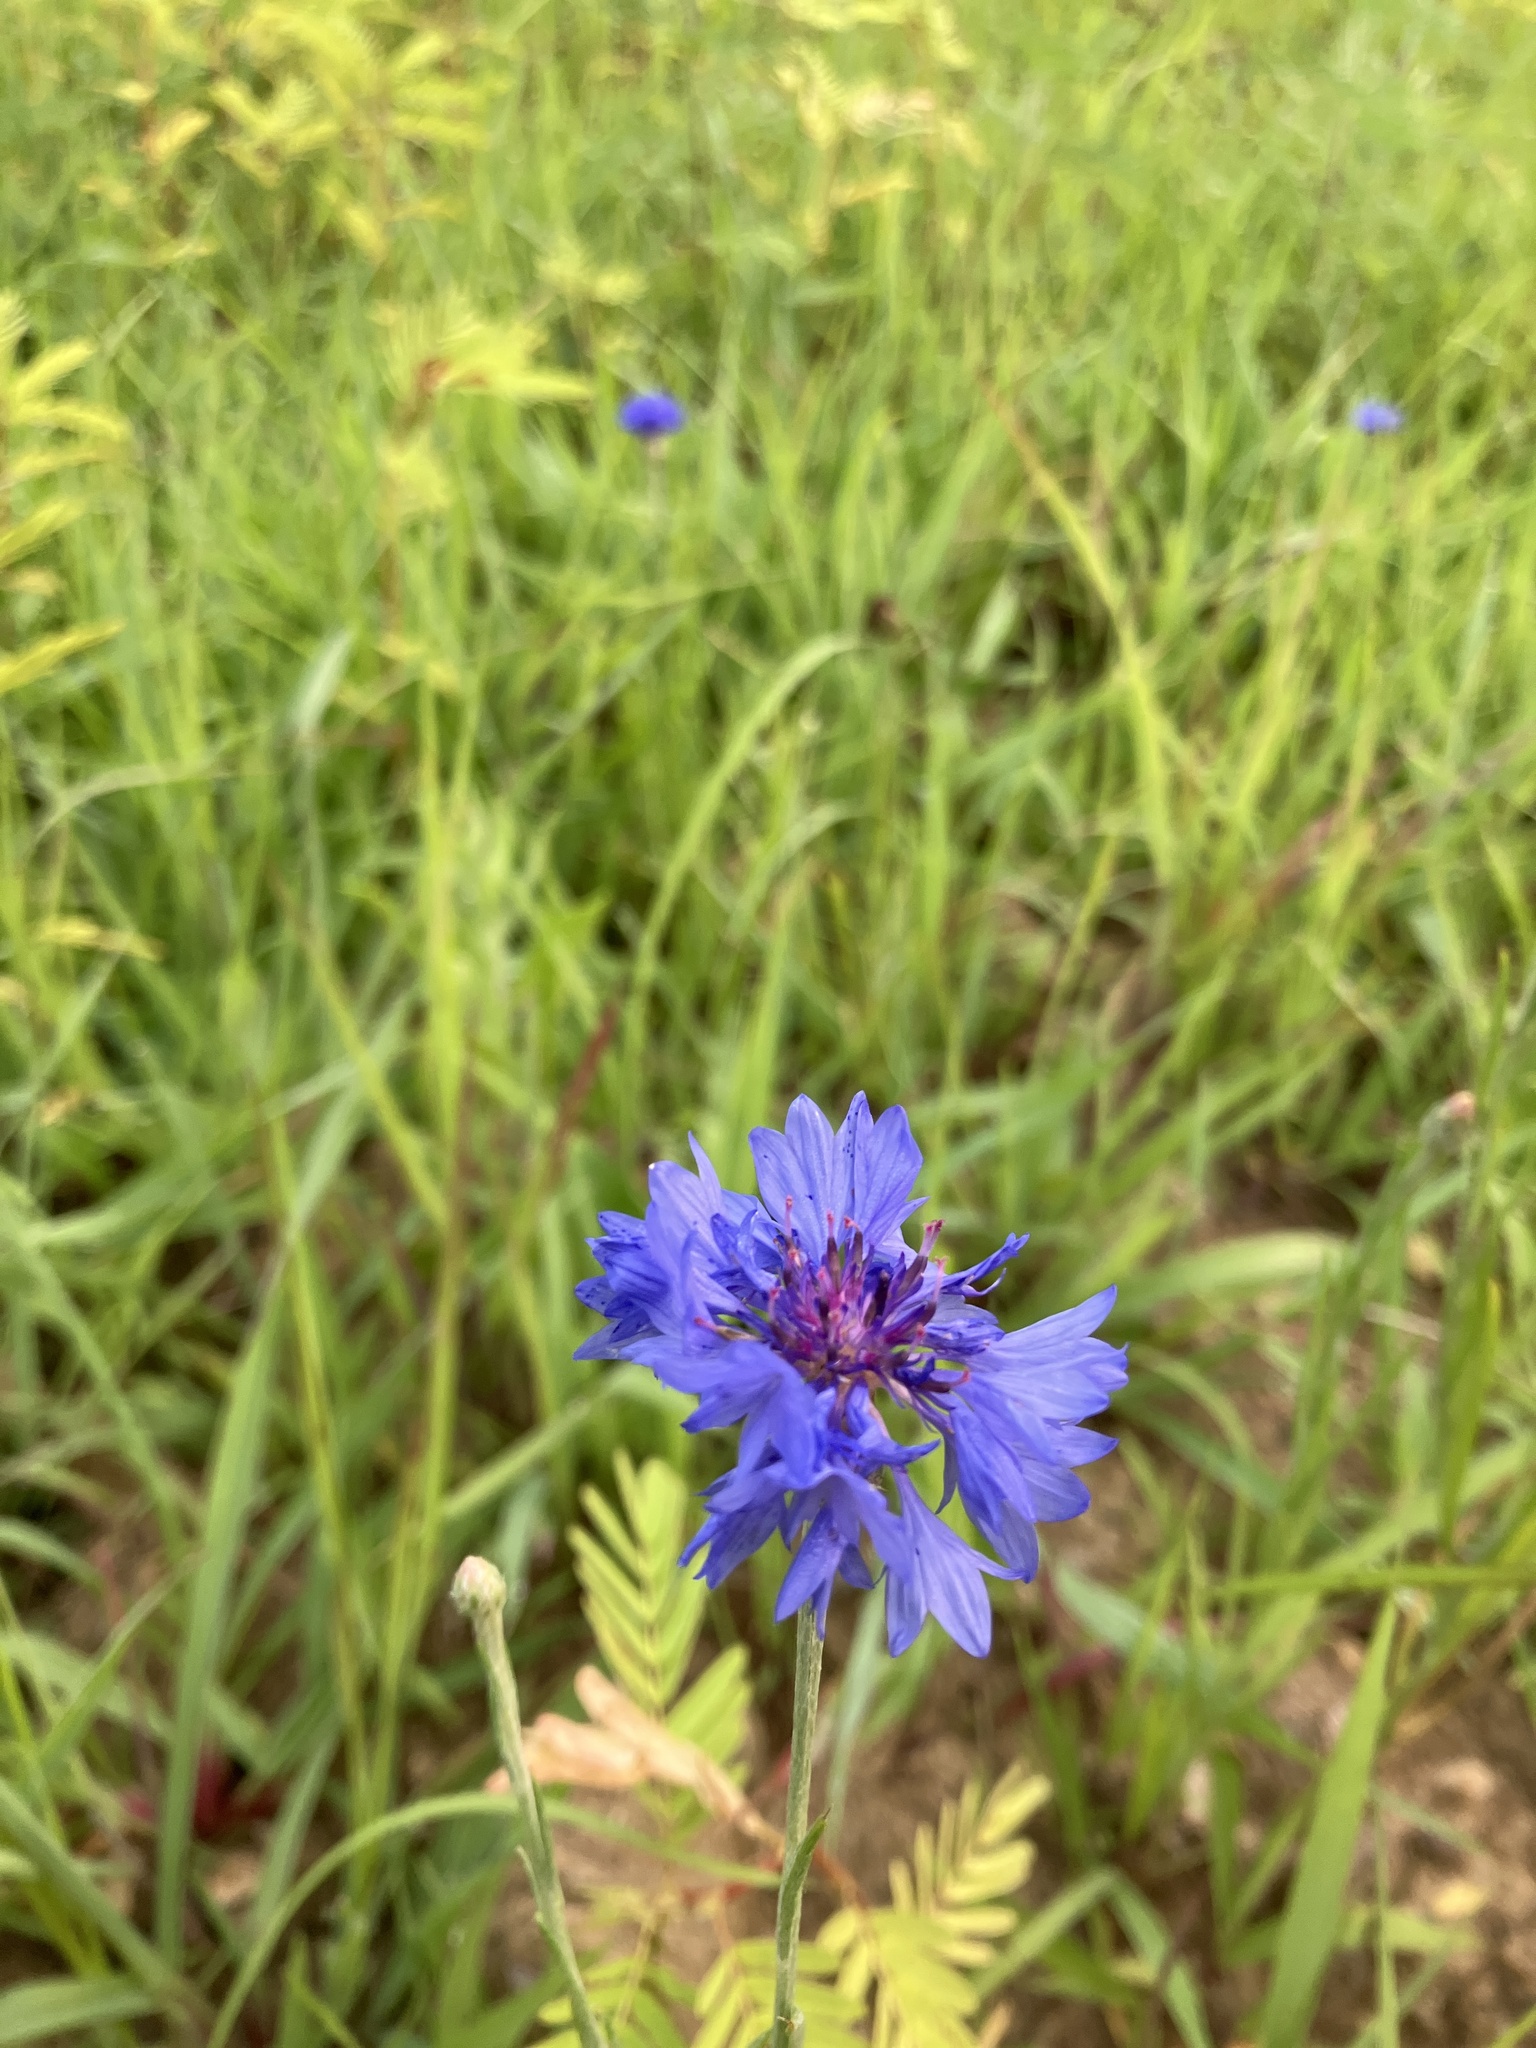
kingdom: Plantae
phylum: Tracheophyta
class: Magnoliopsida
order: Asterales
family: Asteraceae
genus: Centaurea
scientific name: Centaurea cyanus
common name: Cornflower
